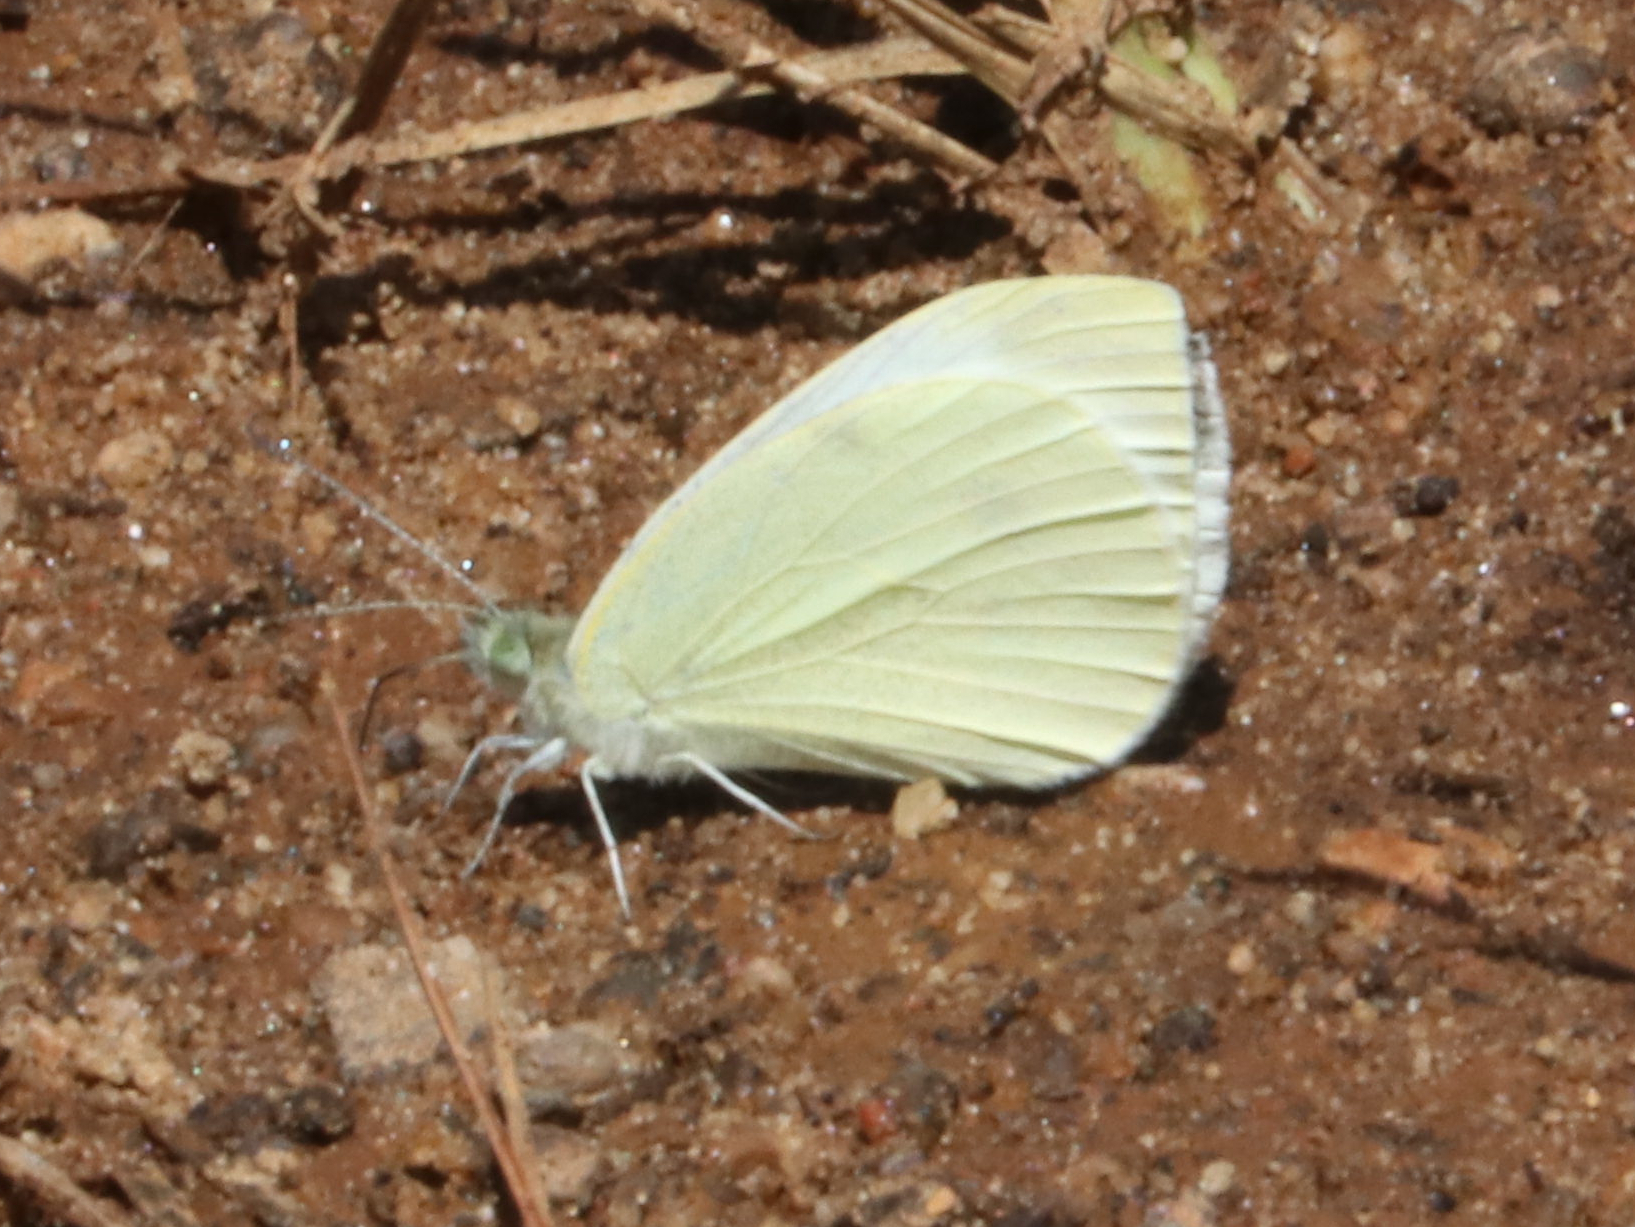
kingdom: Animalia
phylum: Arthropoda
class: Insecta
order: Lepidoptera
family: Pieridae
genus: Pieris
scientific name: Pieris rapae
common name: Small white
